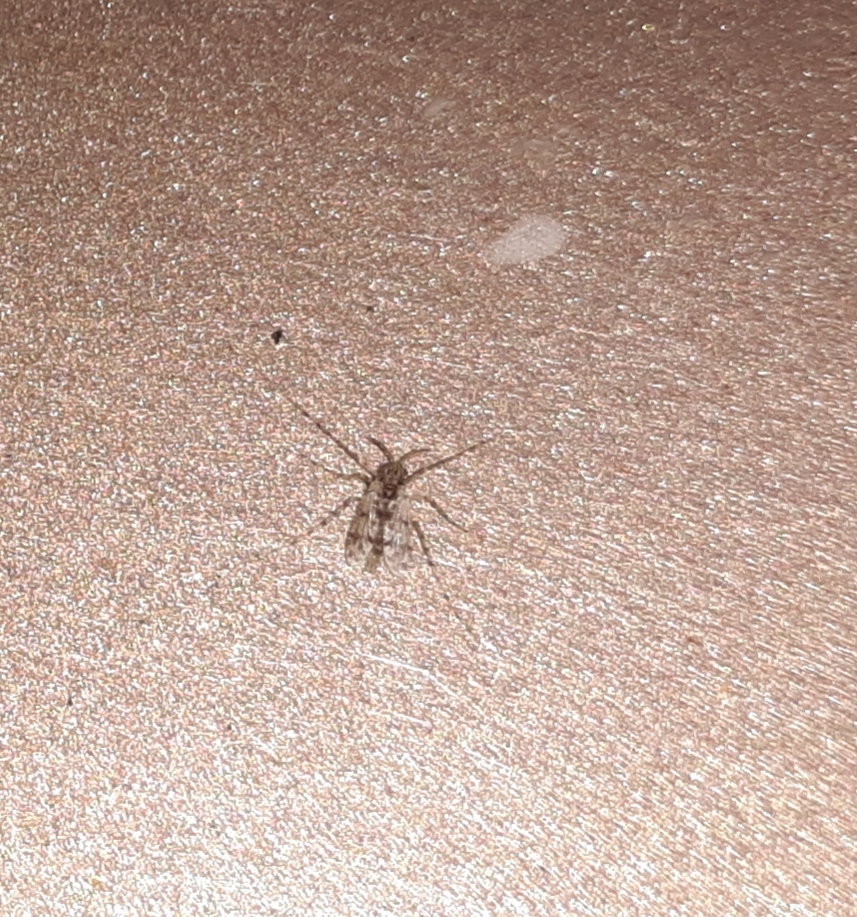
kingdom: Animalia
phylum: Arthropoda
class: Insecta
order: Diptera
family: Chironomidae
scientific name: Chironomidae
